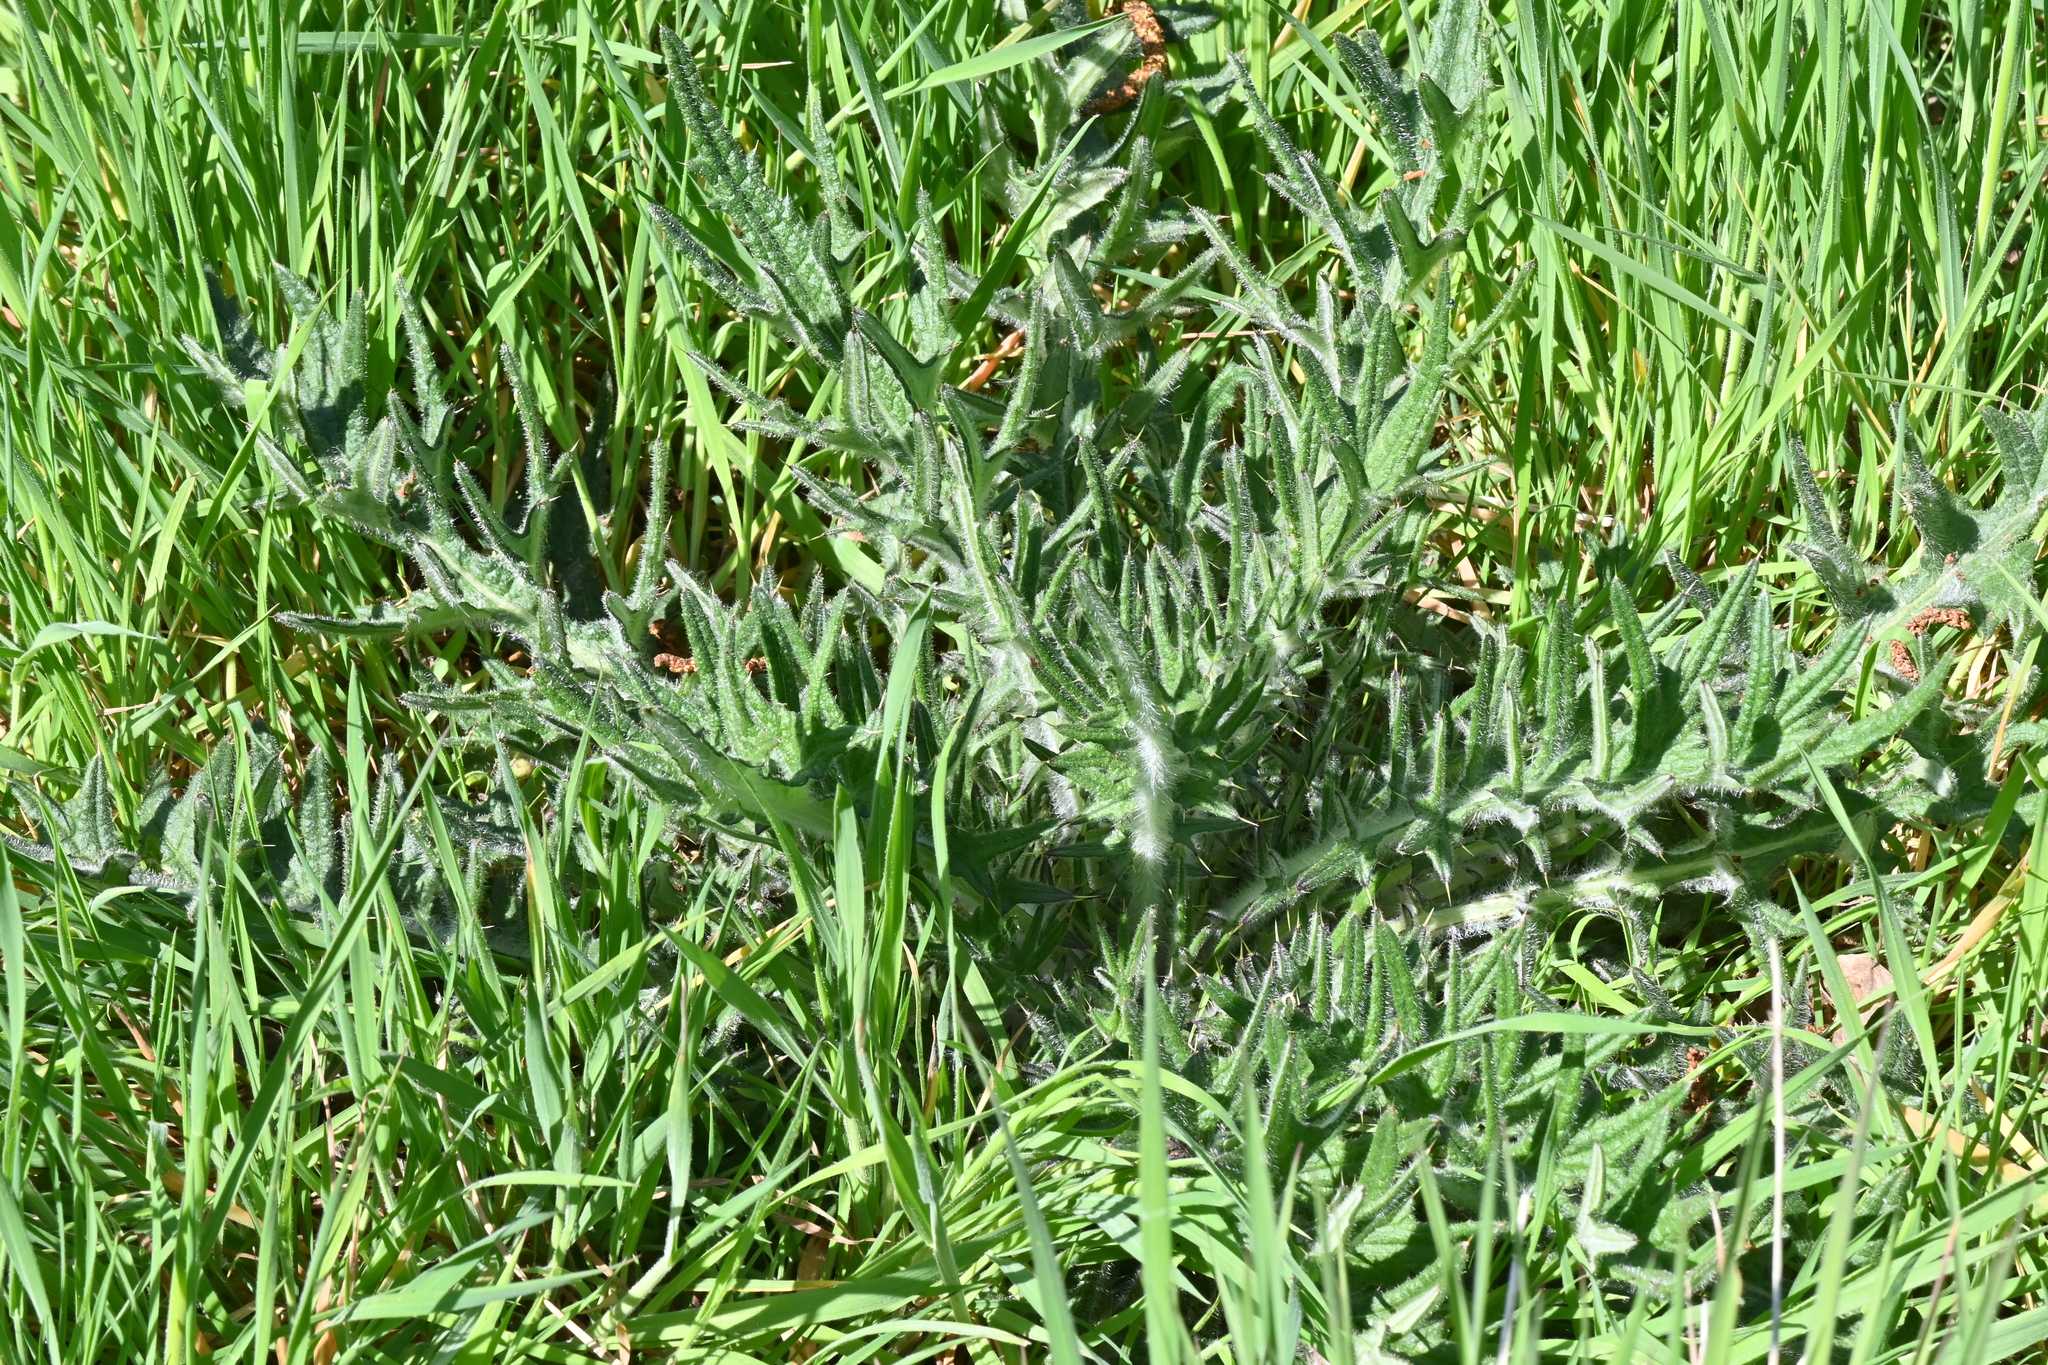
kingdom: Plantae
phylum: Tracheophyta
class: Magnoliopsida
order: Asterales
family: Asteraceae
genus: Cirsium
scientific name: Cirsium vulgare
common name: Bull thistle
